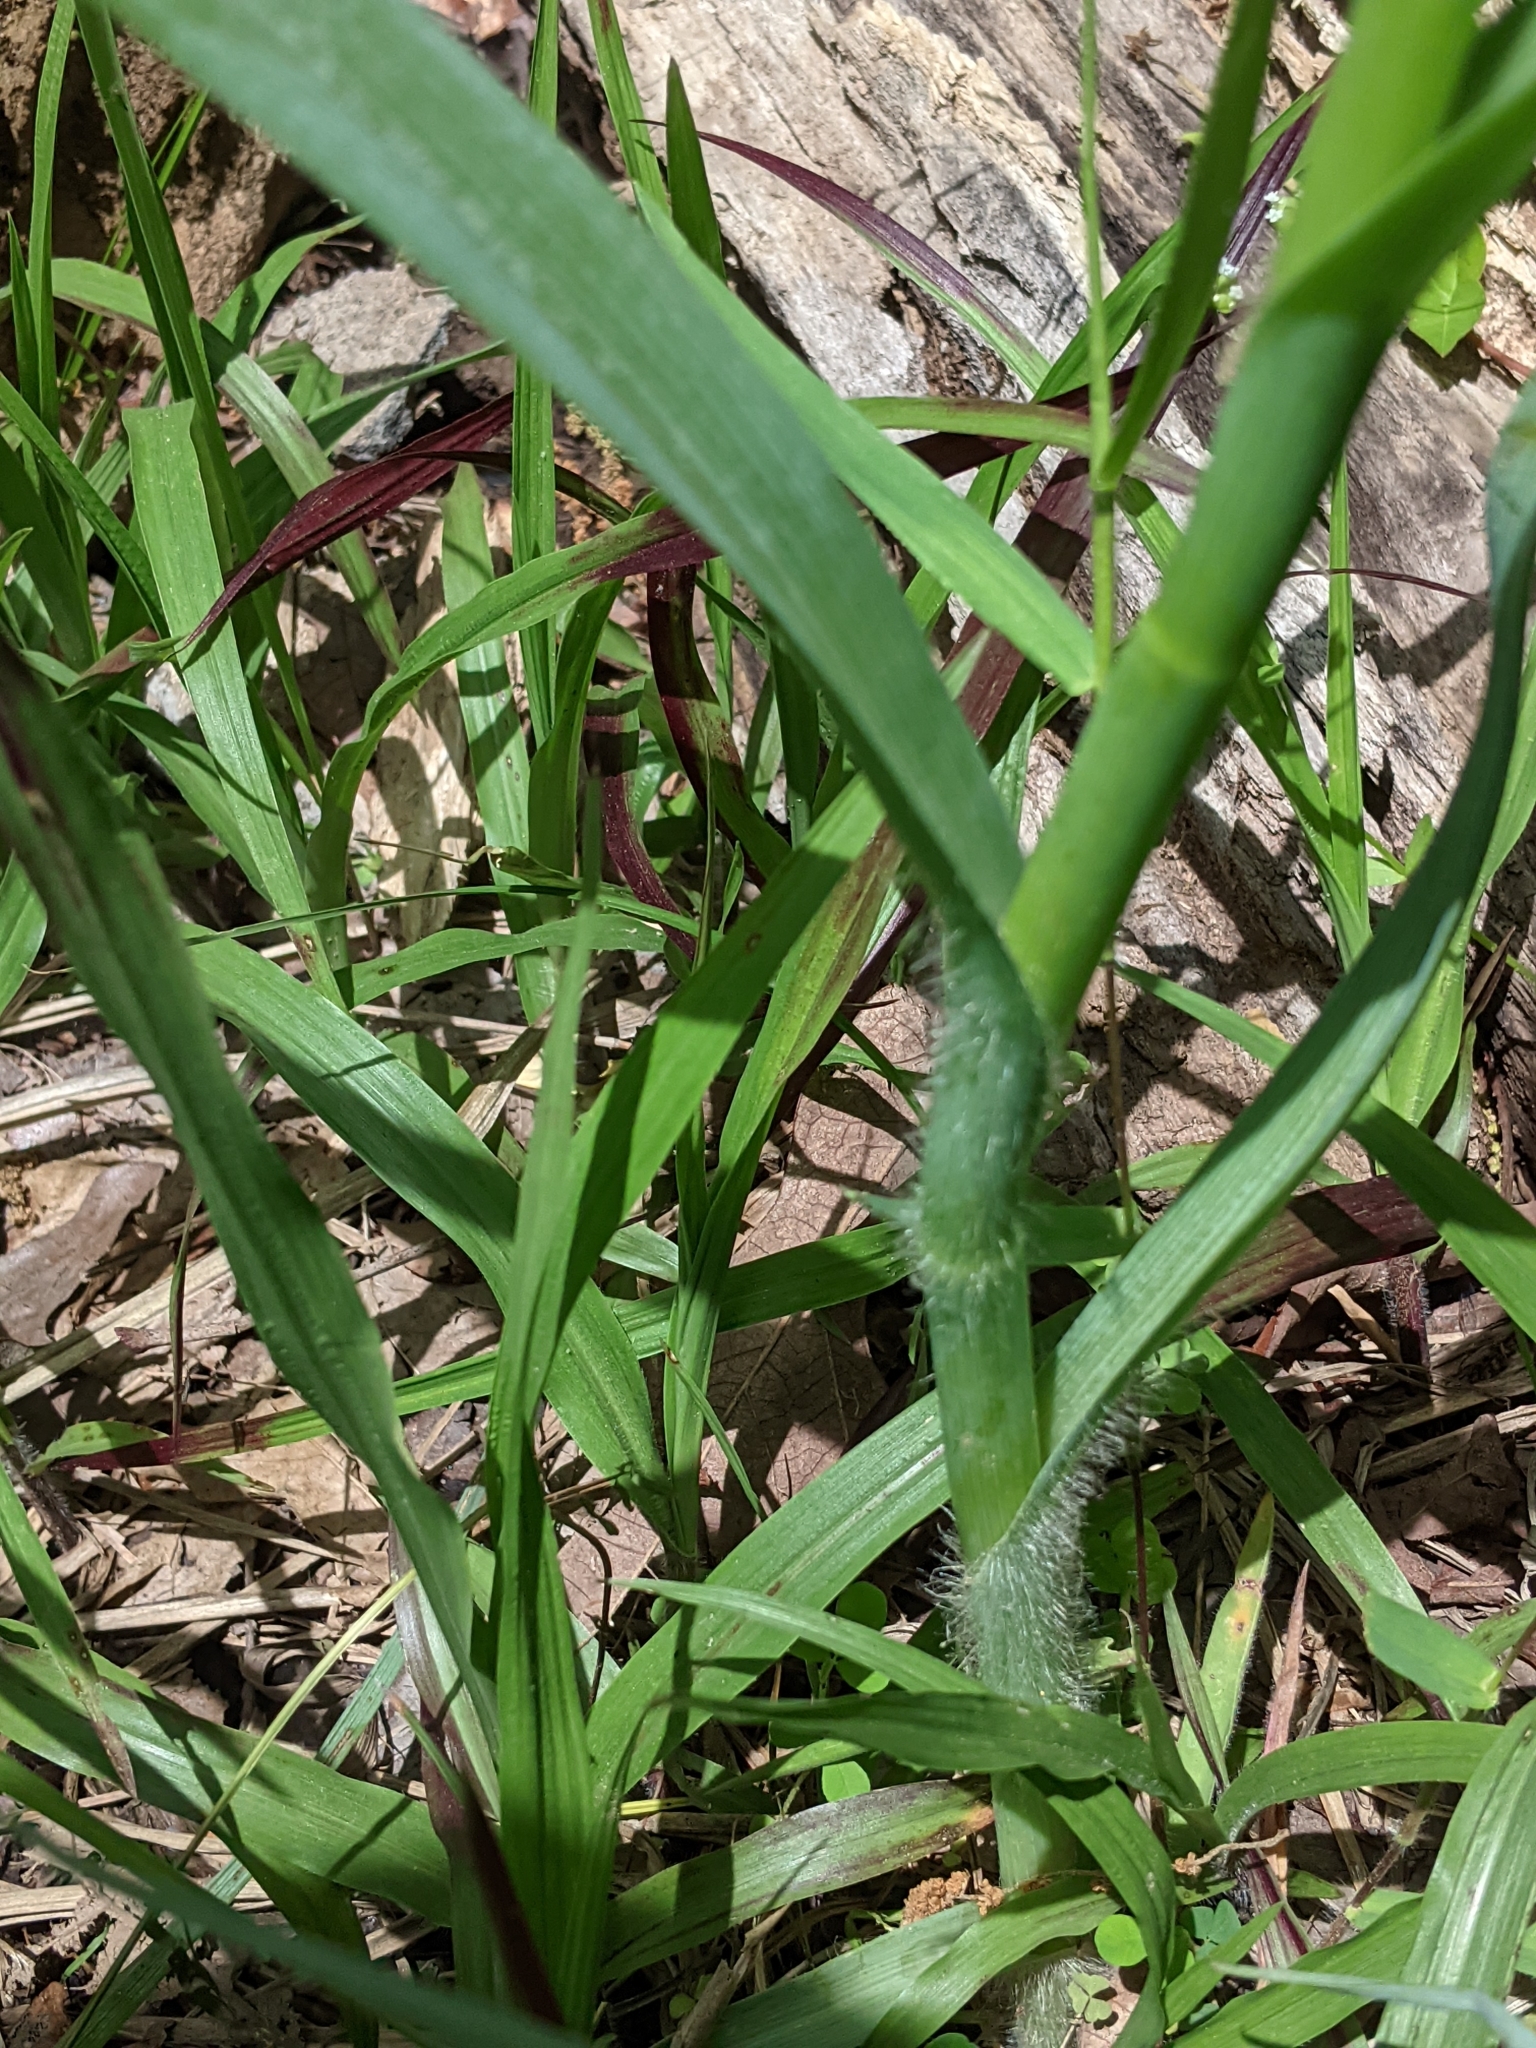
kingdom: Plantae
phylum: Tracheophyta
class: Liliopsida
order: Commelinales
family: Commelinaceae
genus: Tradescantia
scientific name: Tradescantia ohiensis
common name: Ohio spiderwort
